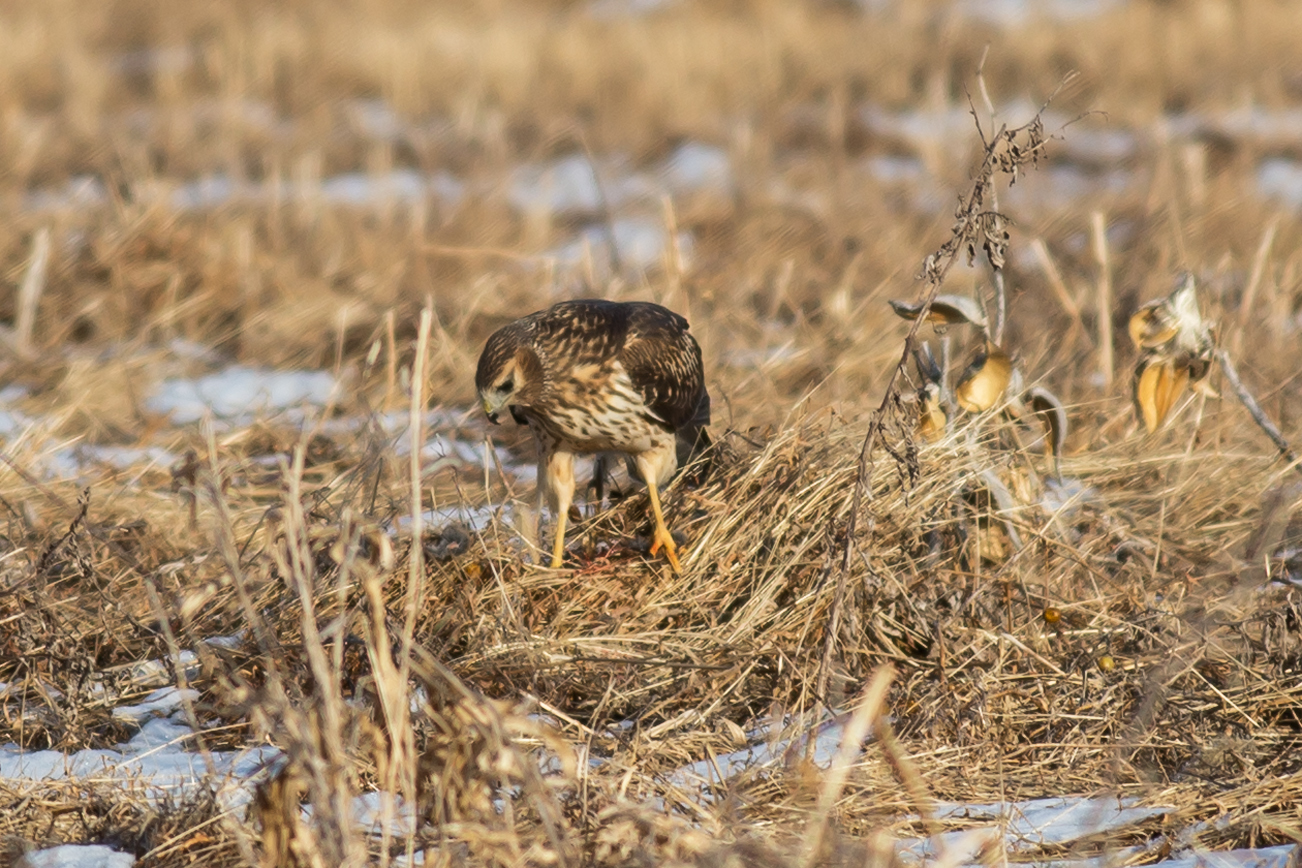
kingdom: Animalia
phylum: Chordata
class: Aves
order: Accipitriformes
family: Accipitridae
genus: Circus
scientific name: Circus cyaneus
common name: Hen harrier
